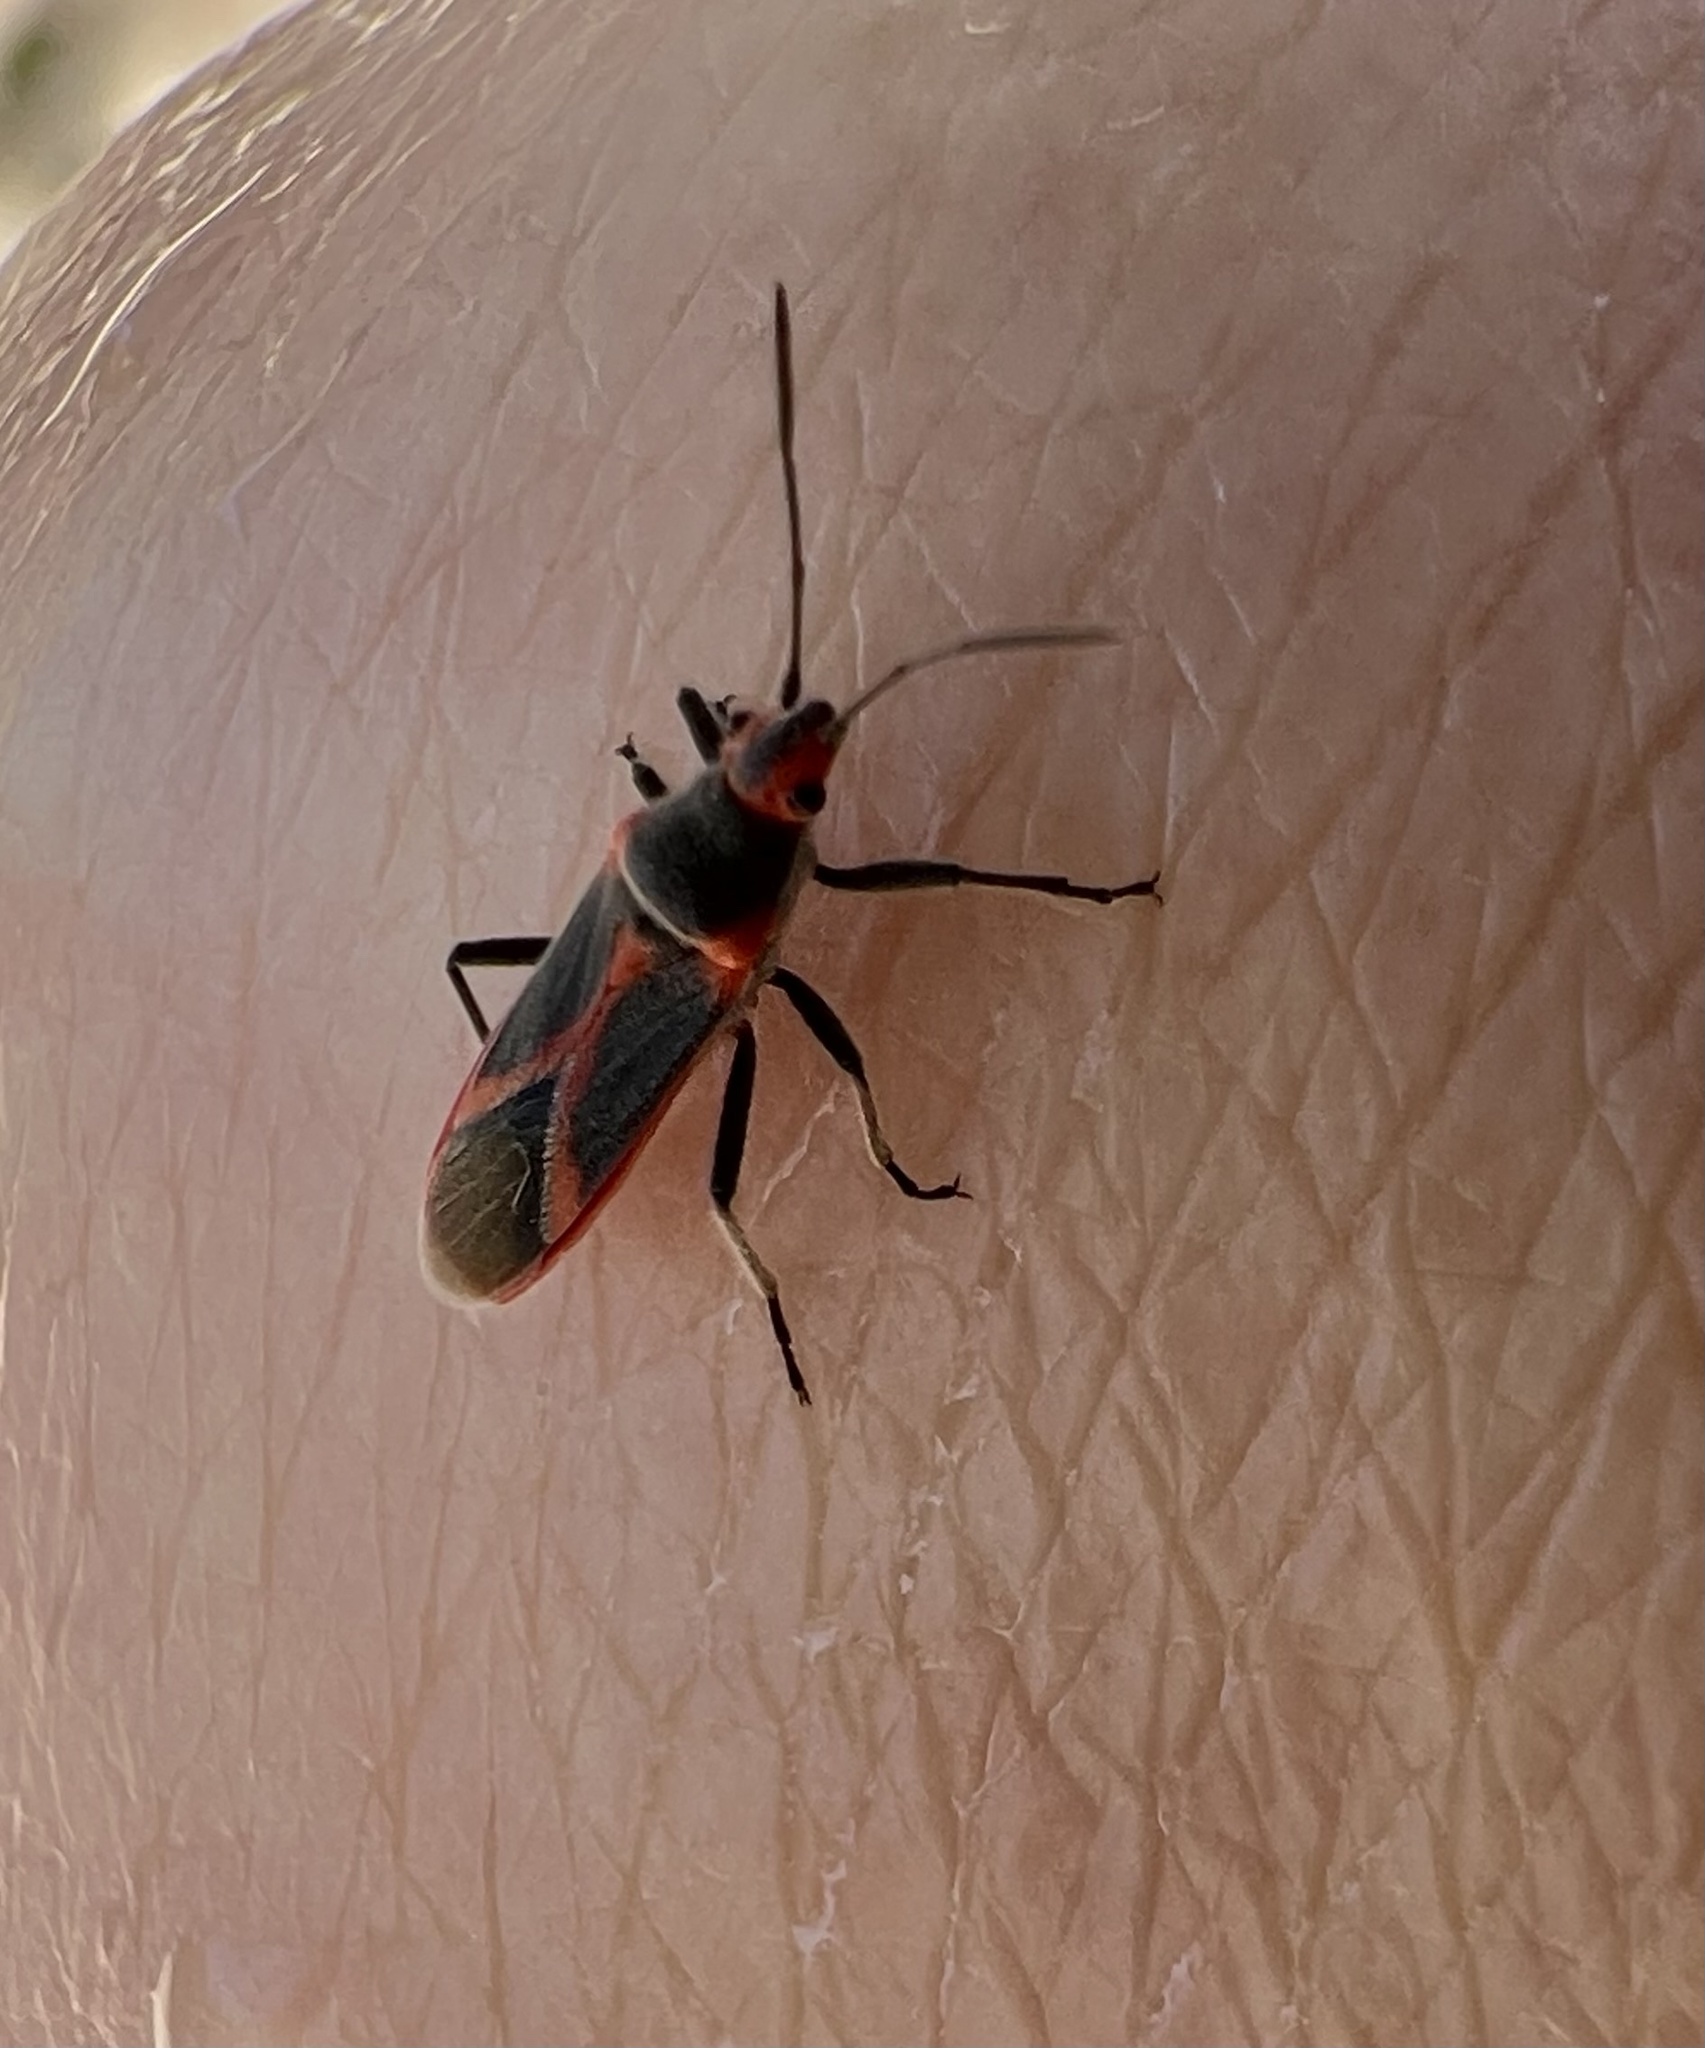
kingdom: Animalia
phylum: Arthropoda
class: Insecta
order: Hemiptera
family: Lygaeidae
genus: Caenocoris
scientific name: Caenocoris nerii
